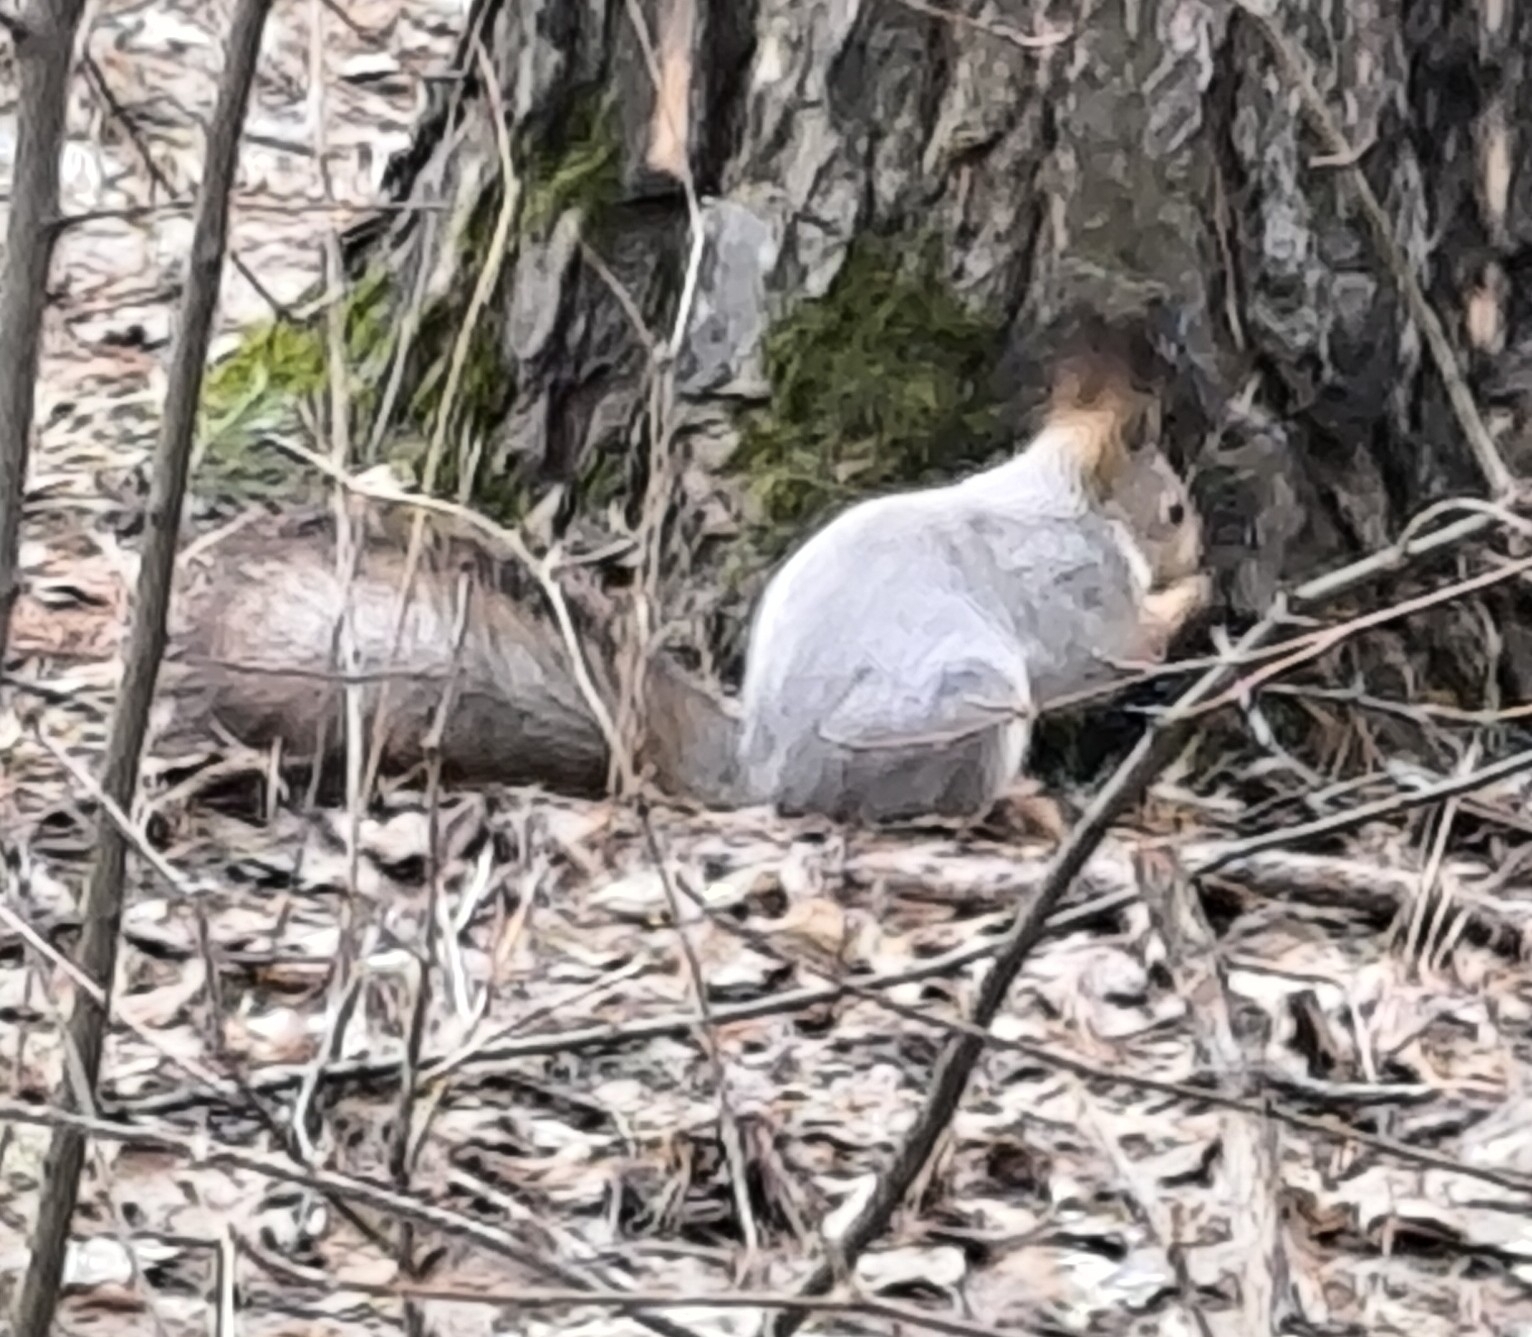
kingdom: Animalia
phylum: Chordata
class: Mammalia
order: Rodentia
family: Sciuridae
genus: Sciurus
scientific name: Sciurus vulgaris
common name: Eurasian red squirrel
